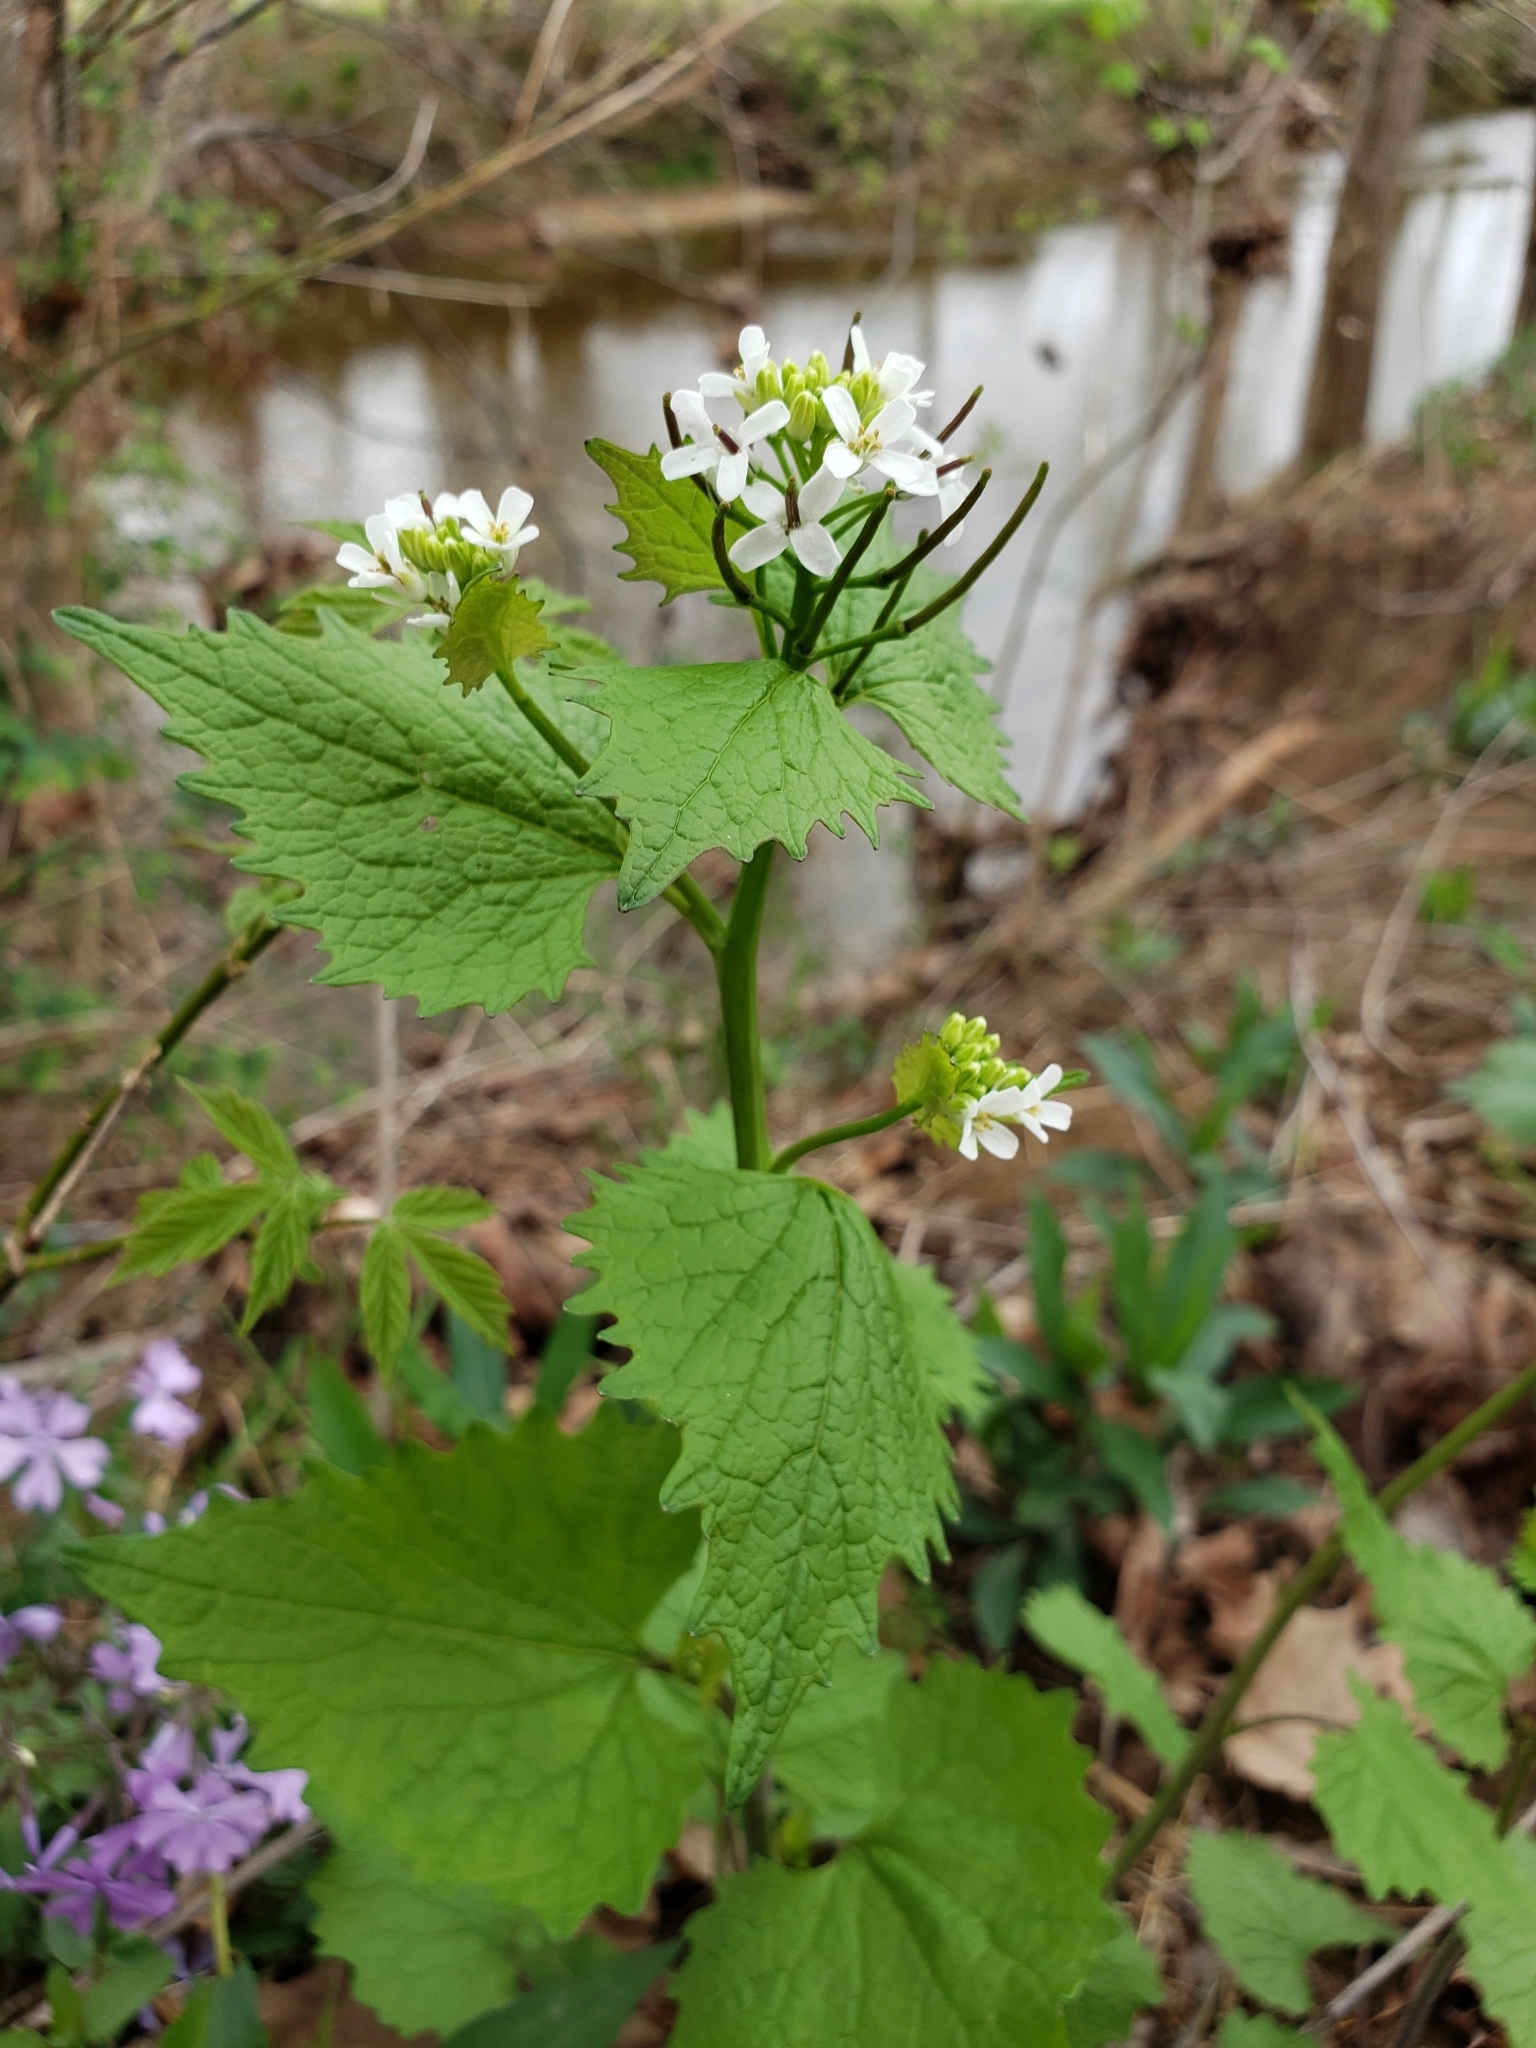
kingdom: Plantae
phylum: Tracheophyta
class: Magnoliopsida
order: Brassicales
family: Brassicaceae
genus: Alliaria
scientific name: Alliaria petiolata
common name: Garlic mustard
